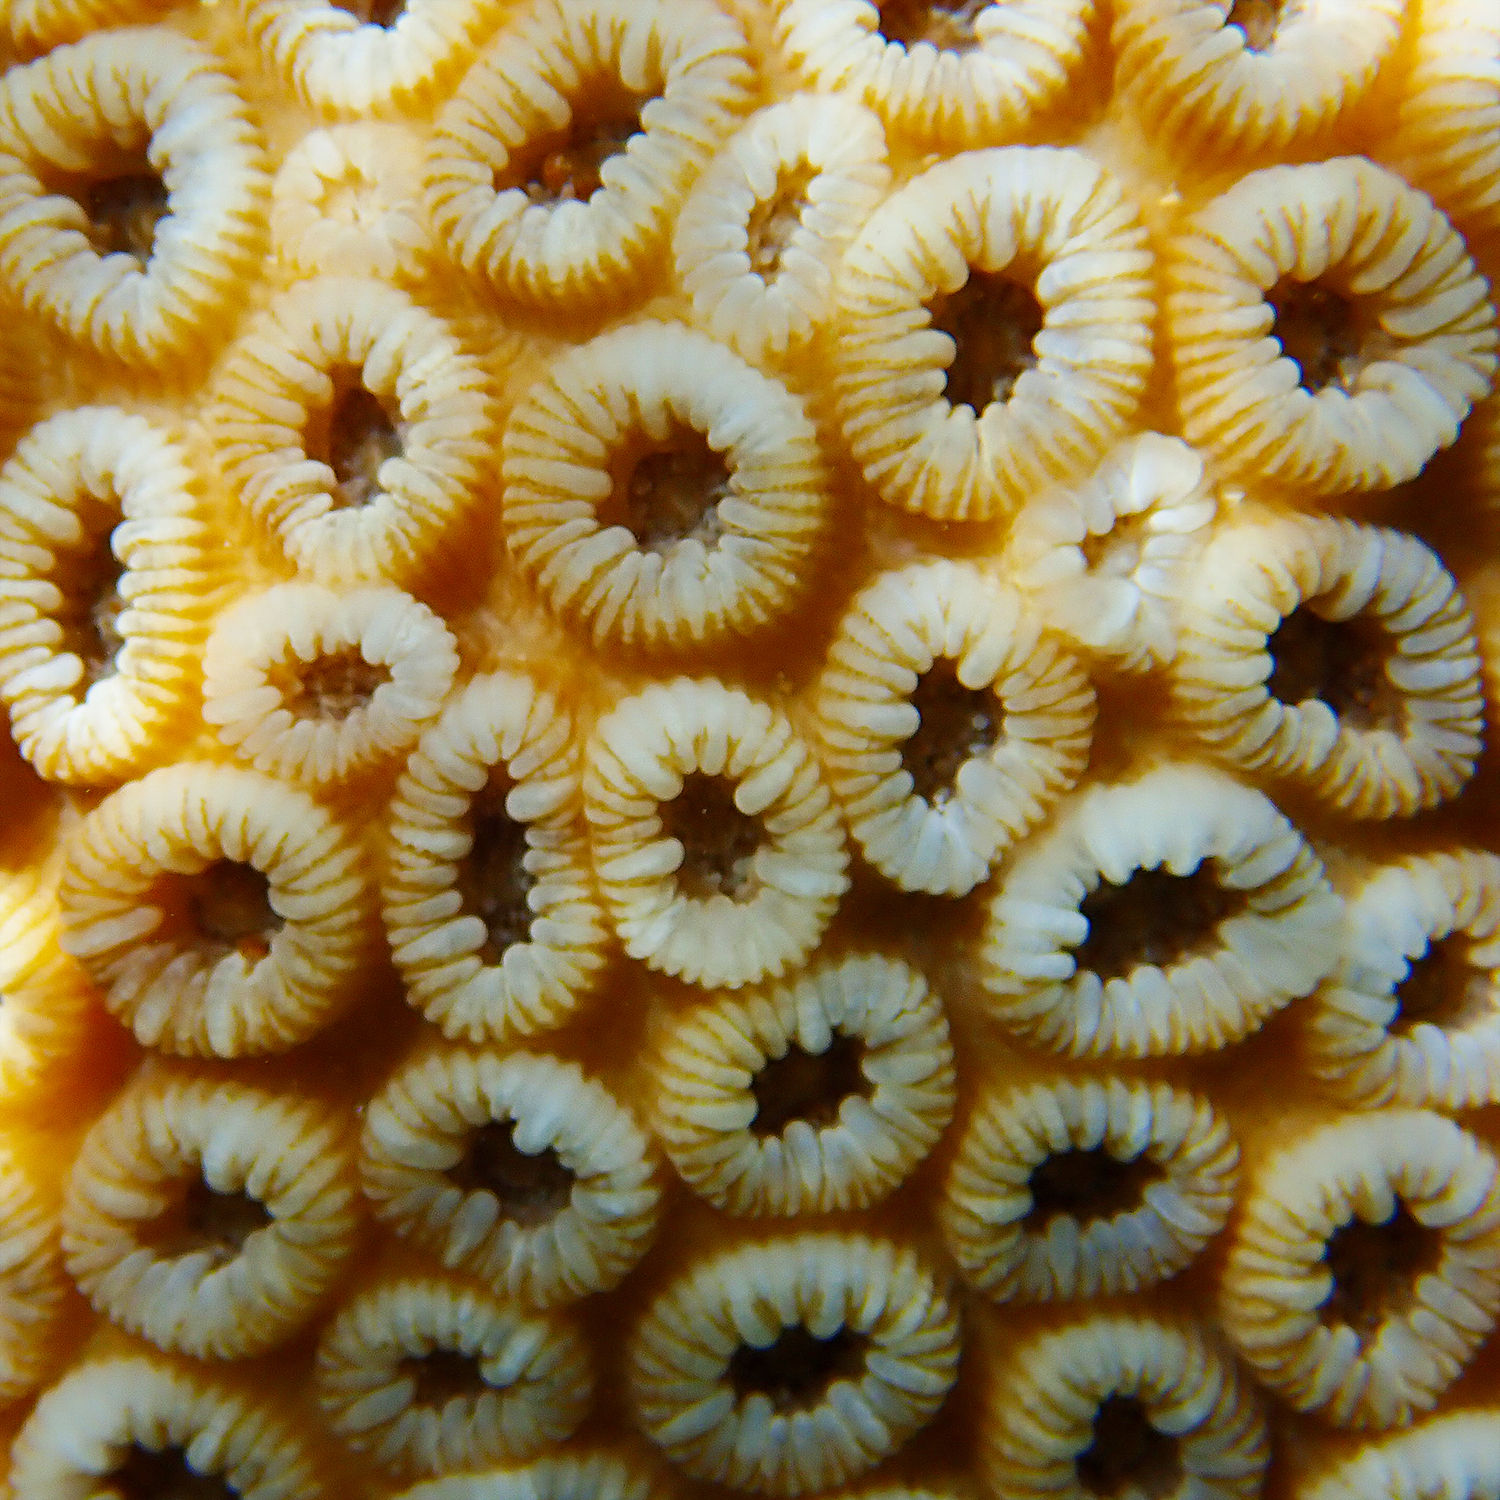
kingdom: Animalia
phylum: Cnidaria
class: Anthozoa
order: Scleractinia
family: Merulinidae
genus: Astrea
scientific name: Astrea curta
